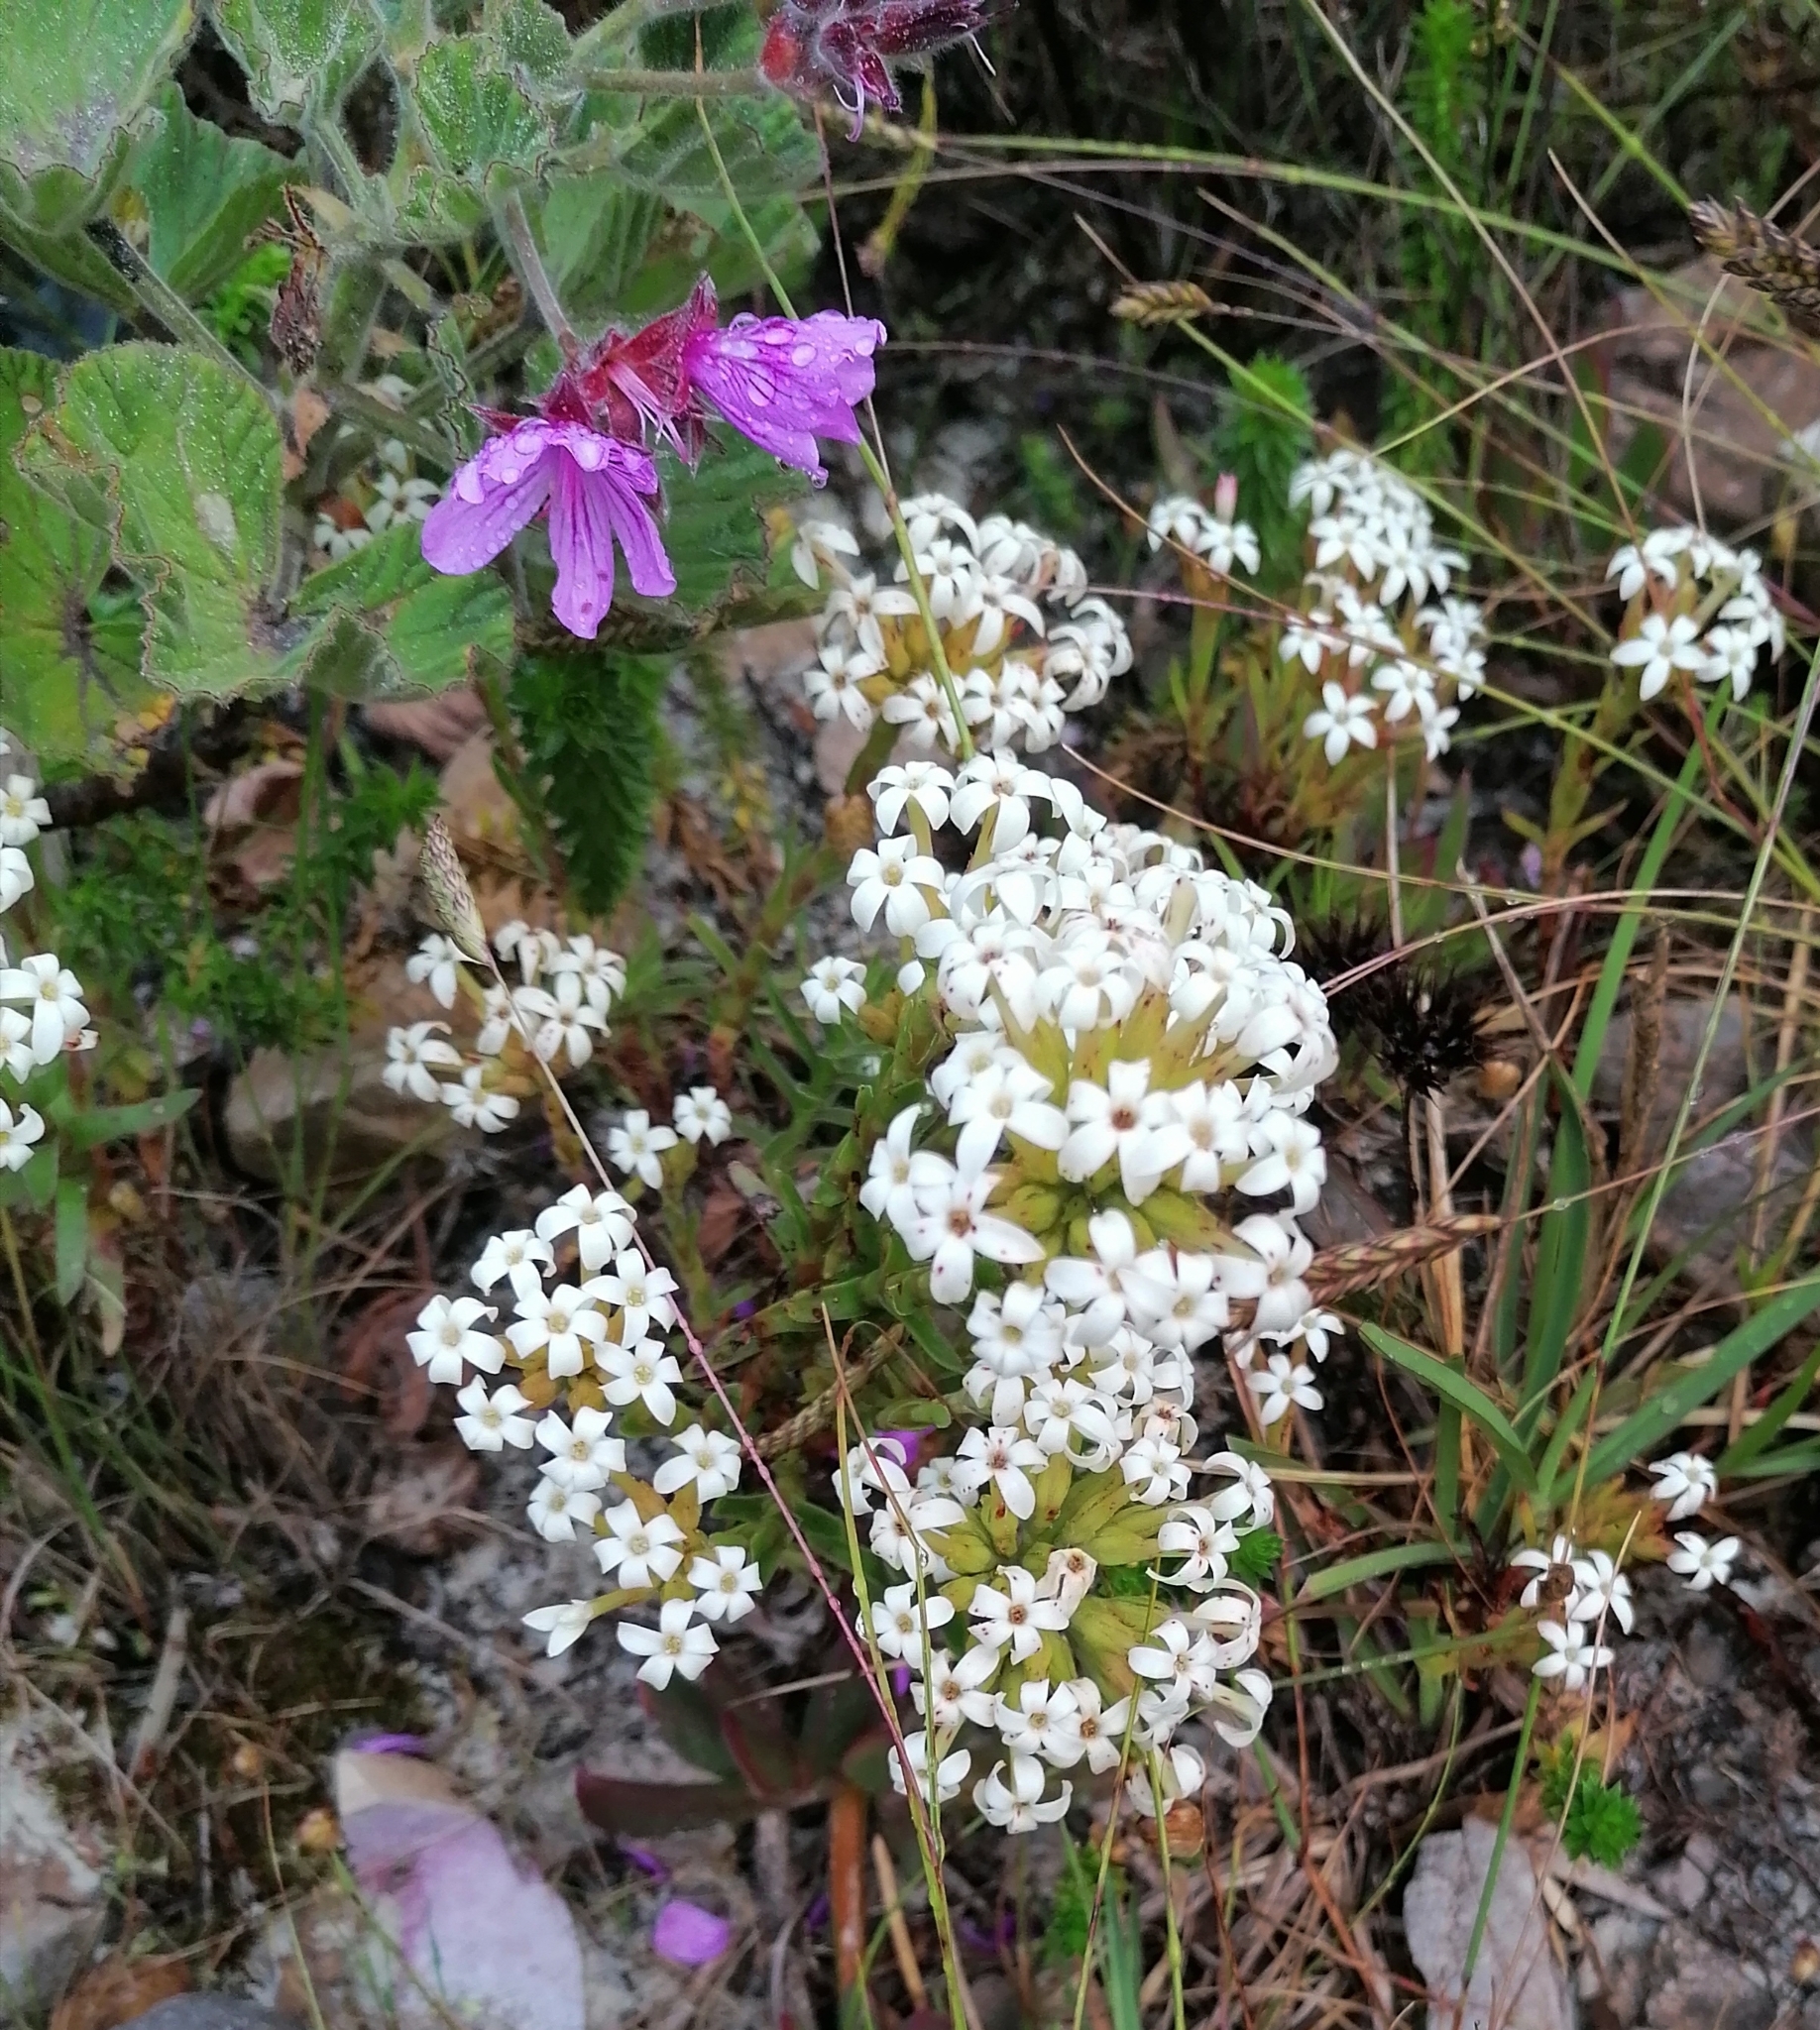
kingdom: Plantae
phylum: Tracheophyta
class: Magnoliopsida
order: Saxifragales
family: Crassulaceae
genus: Crassula
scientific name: Crassula fascicularis
